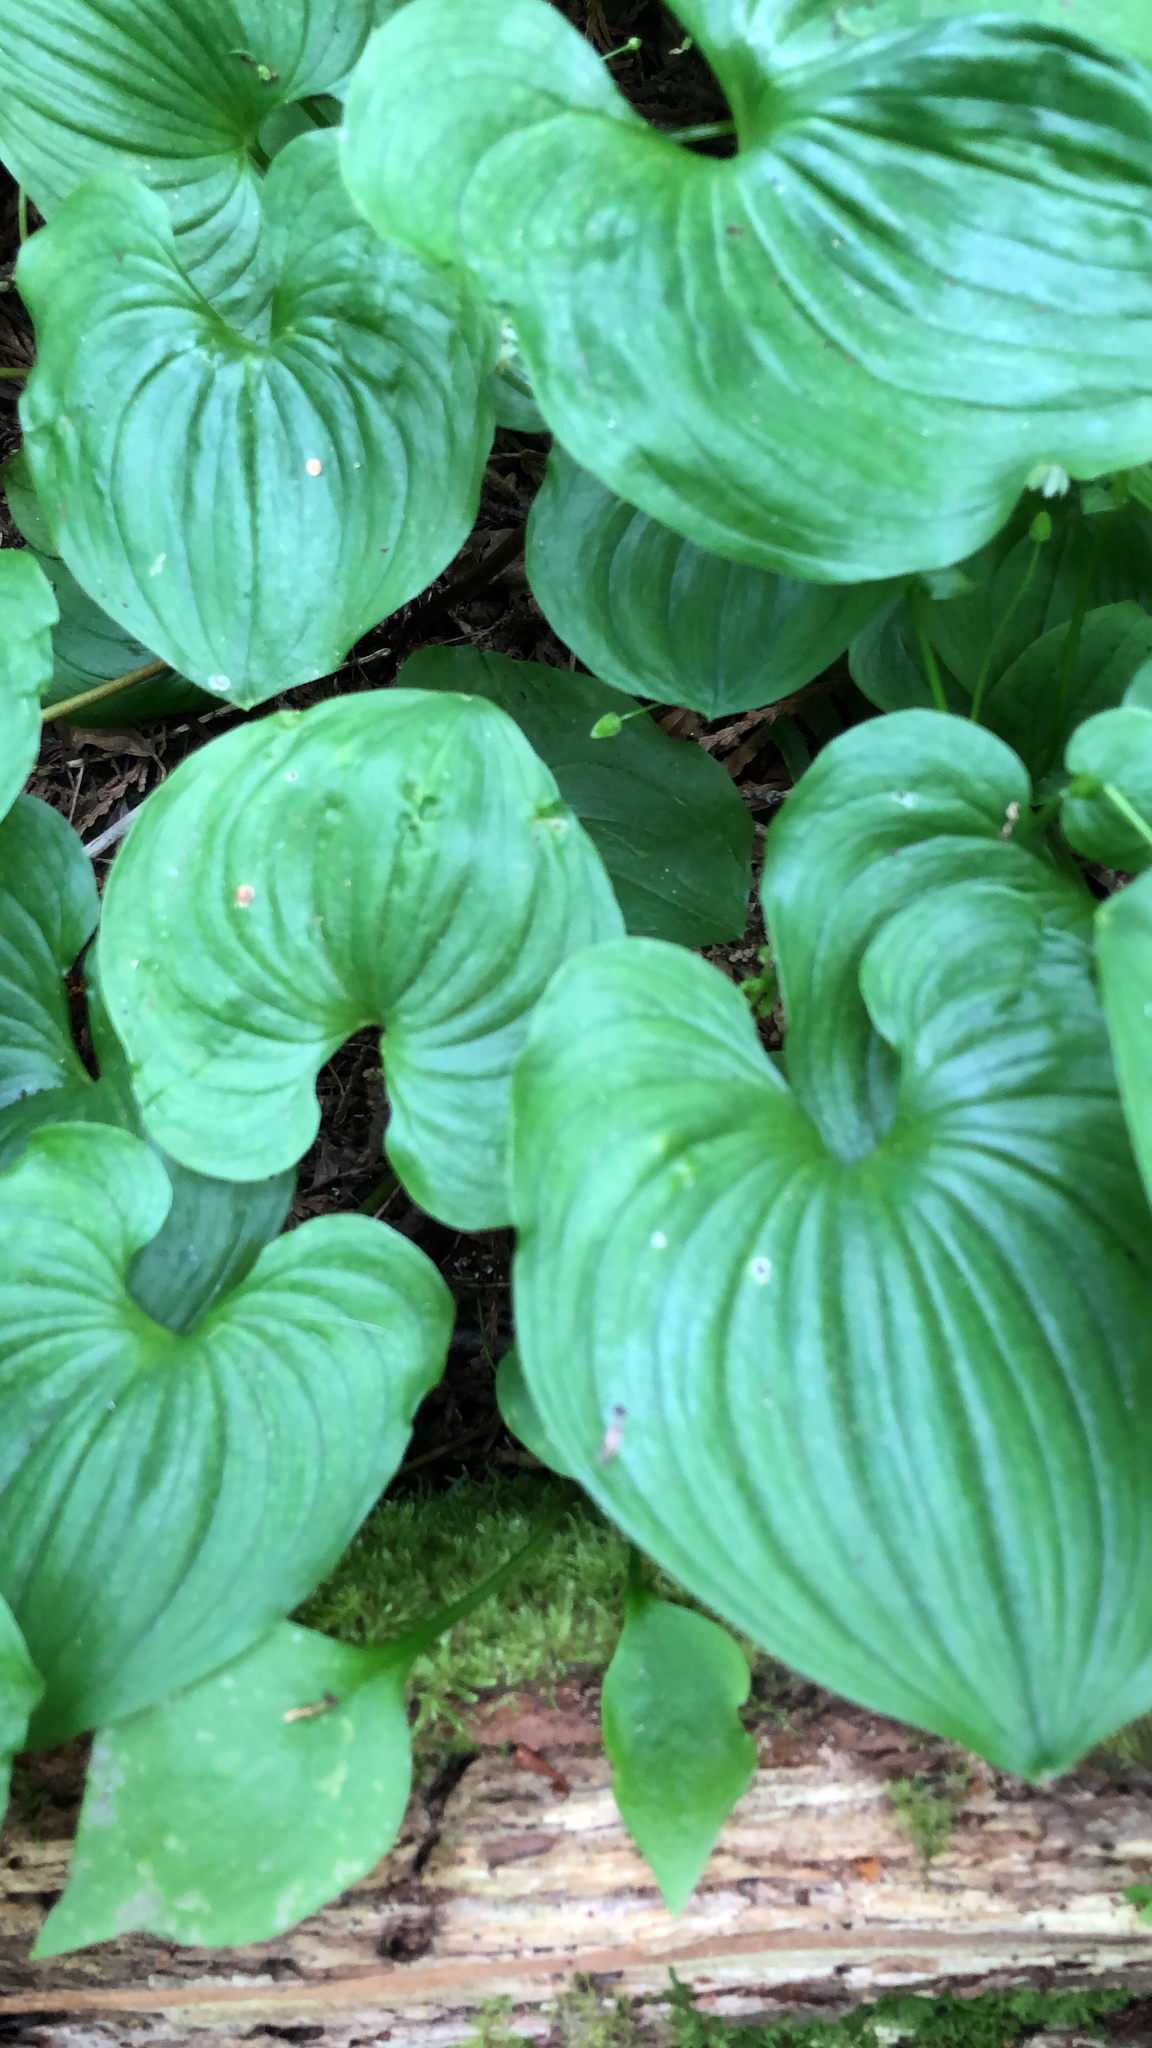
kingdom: Plantae
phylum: Tracheophyta
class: Liliopsida
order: Asparagales
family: Asparagaceae
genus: Maianthemum
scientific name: Maianthemum dilatatum
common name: False lily-of-the-valley
